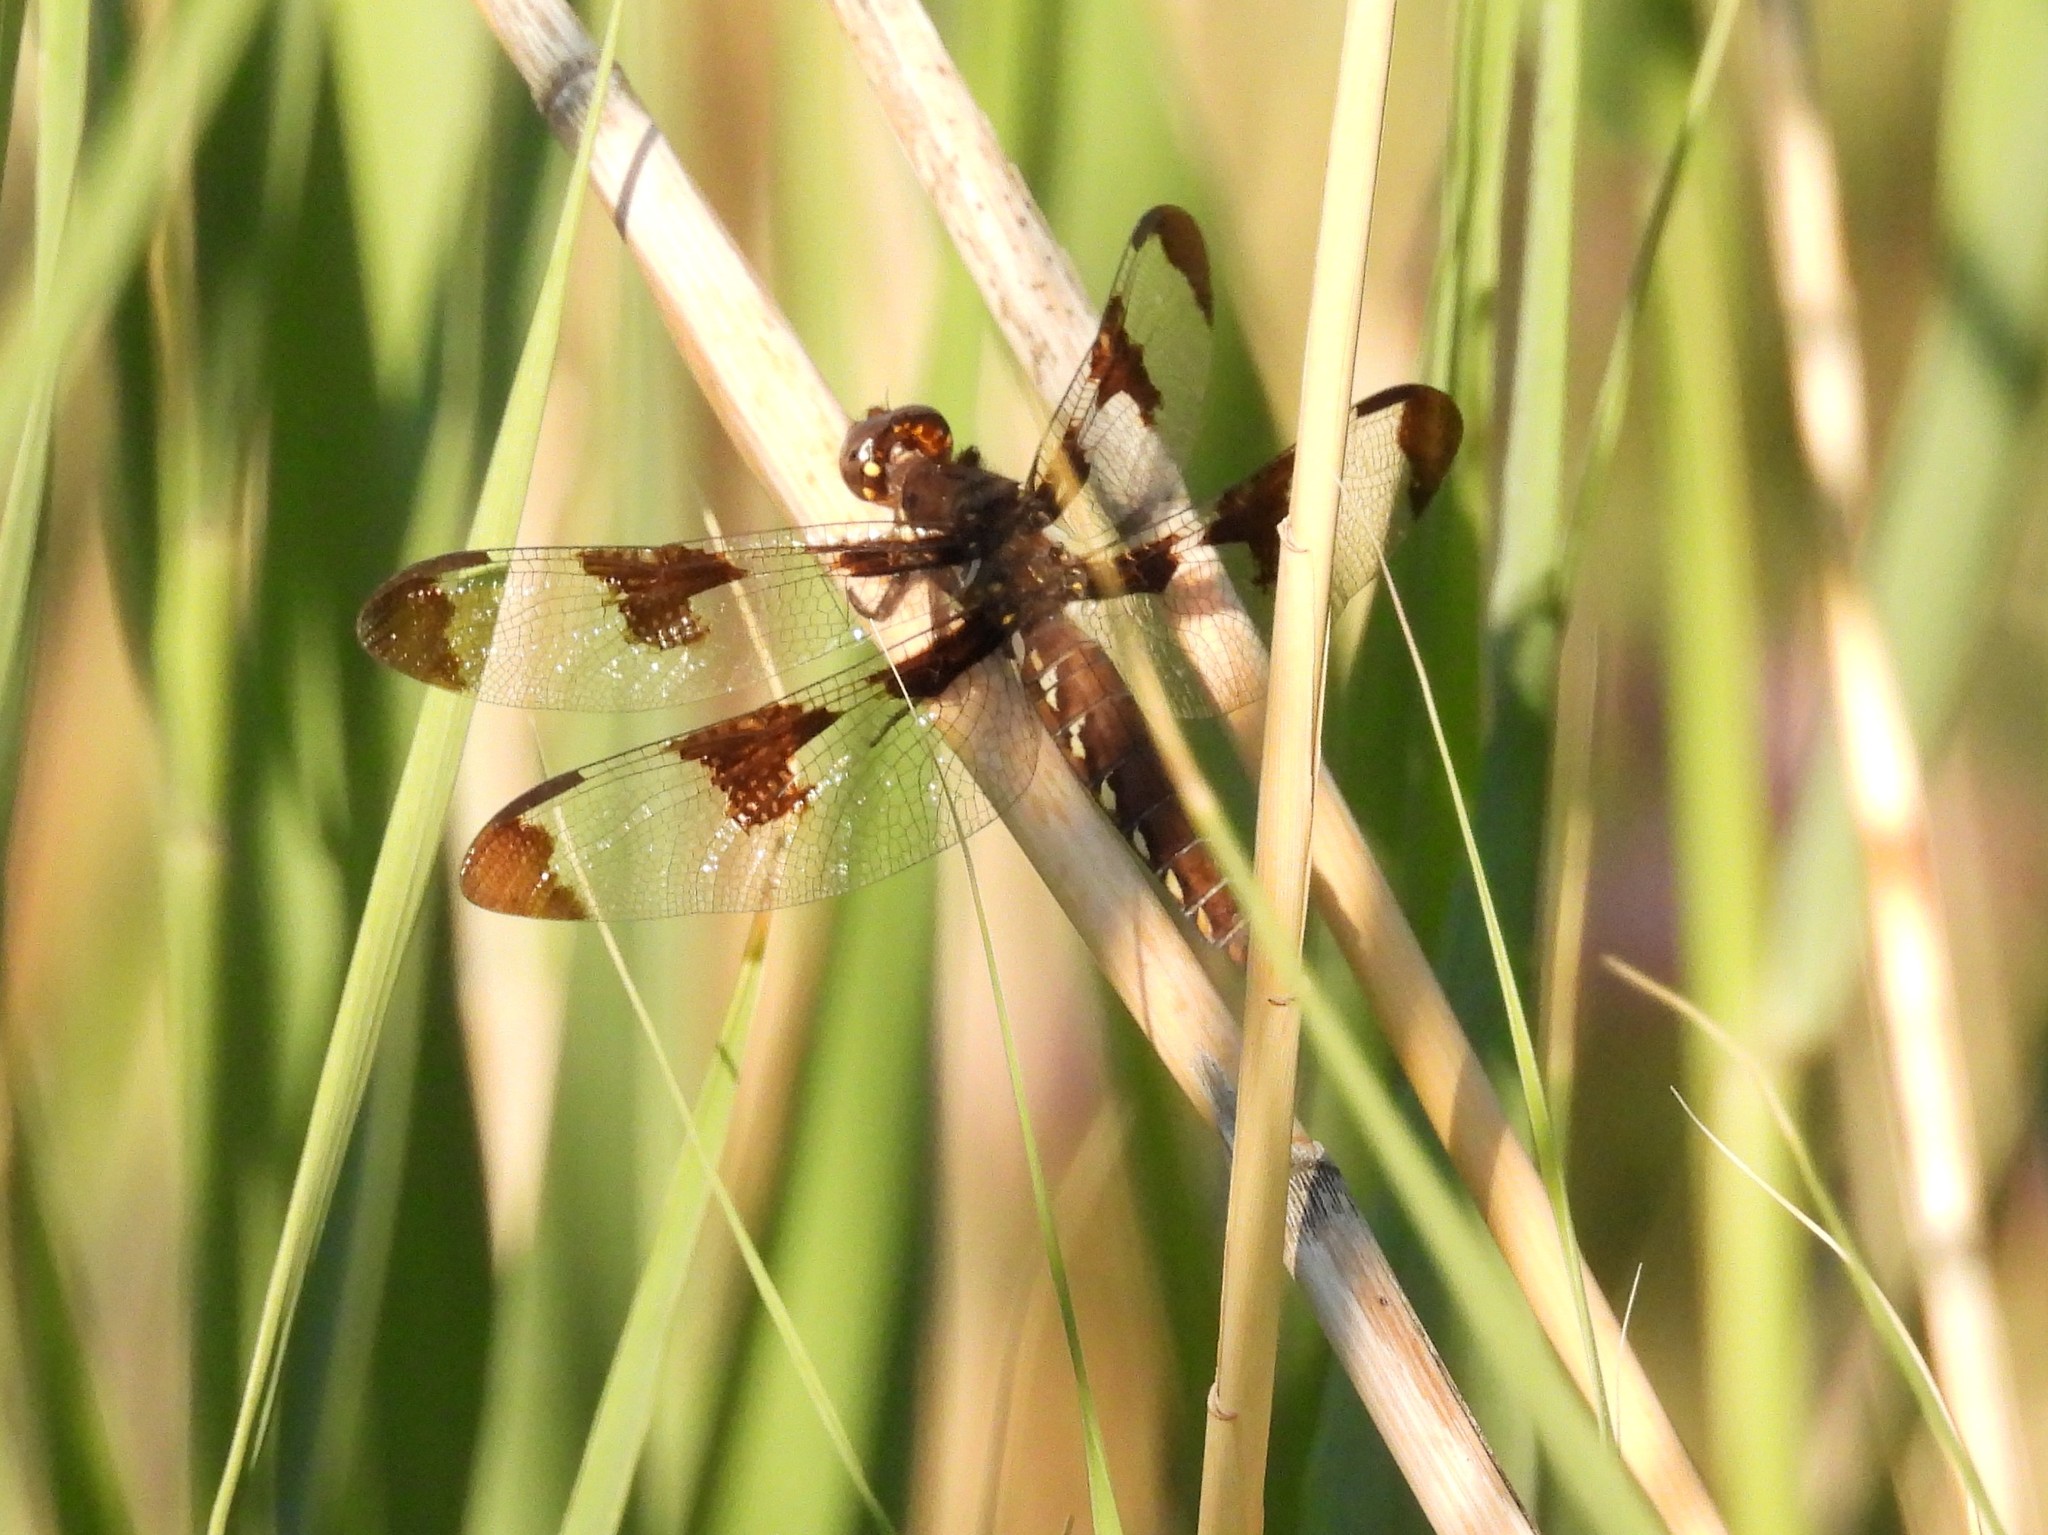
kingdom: Animalia
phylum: Arthropoda
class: Insecta
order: Odonata
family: Libellulidae
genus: Plathemis
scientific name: Plathemis lydia
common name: Common whitetail
